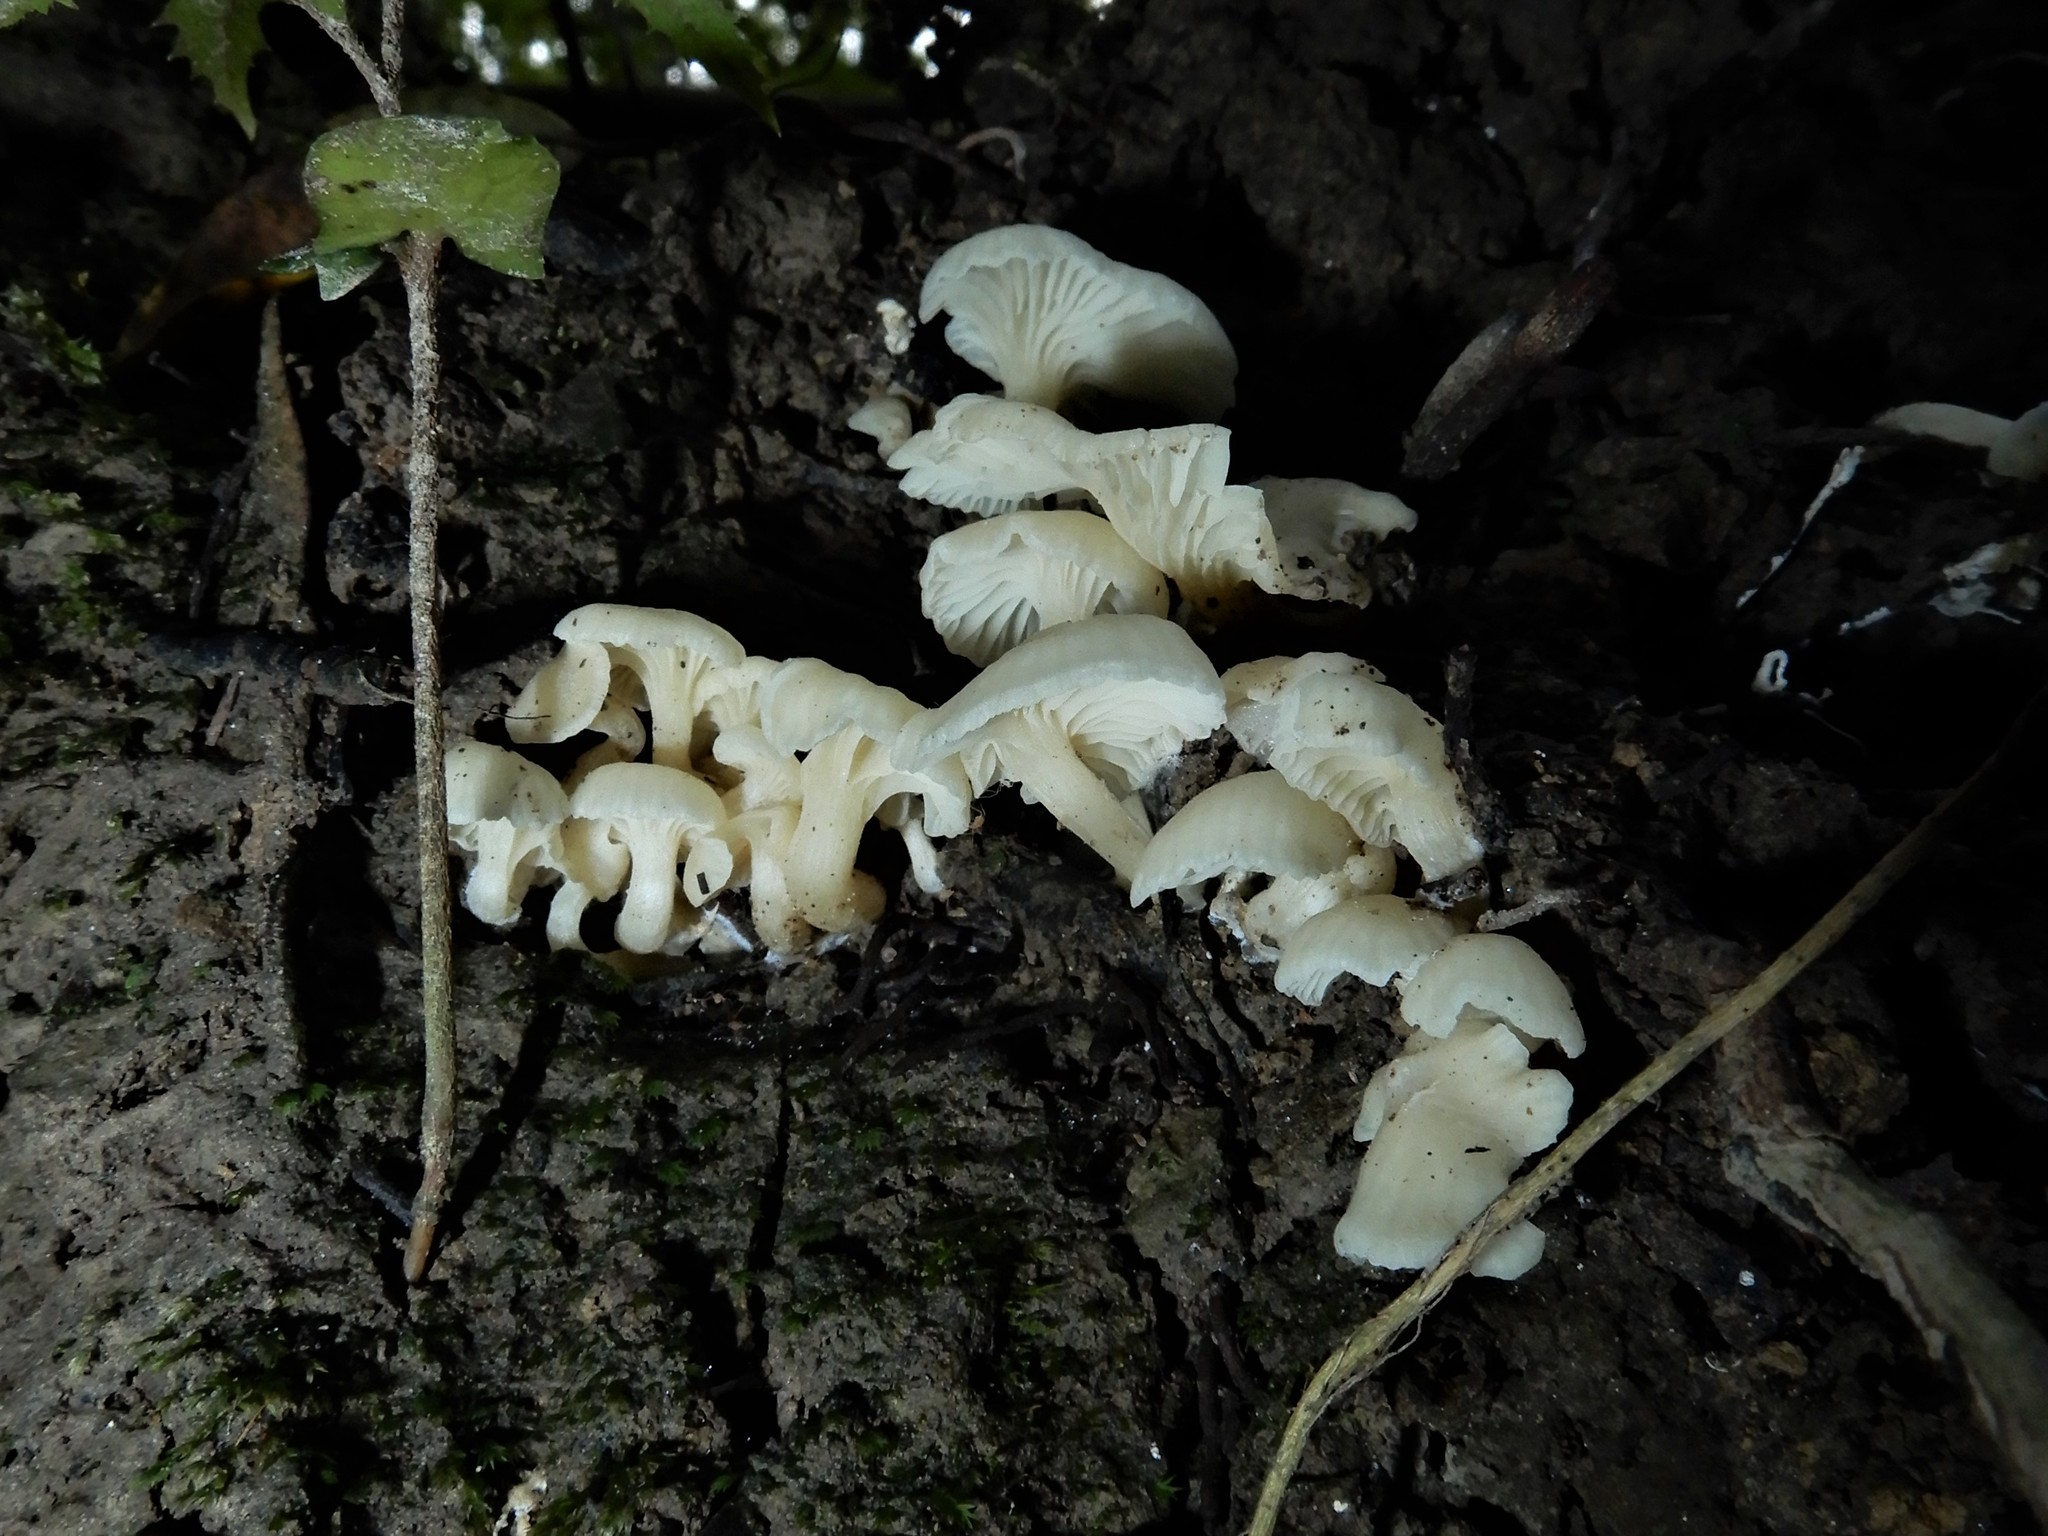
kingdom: Fungi
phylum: Basidiomycota
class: Agaricomycetes
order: Agaricales
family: Tricholomataceae
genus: Rhizocybe
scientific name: Rhizocybe albida
